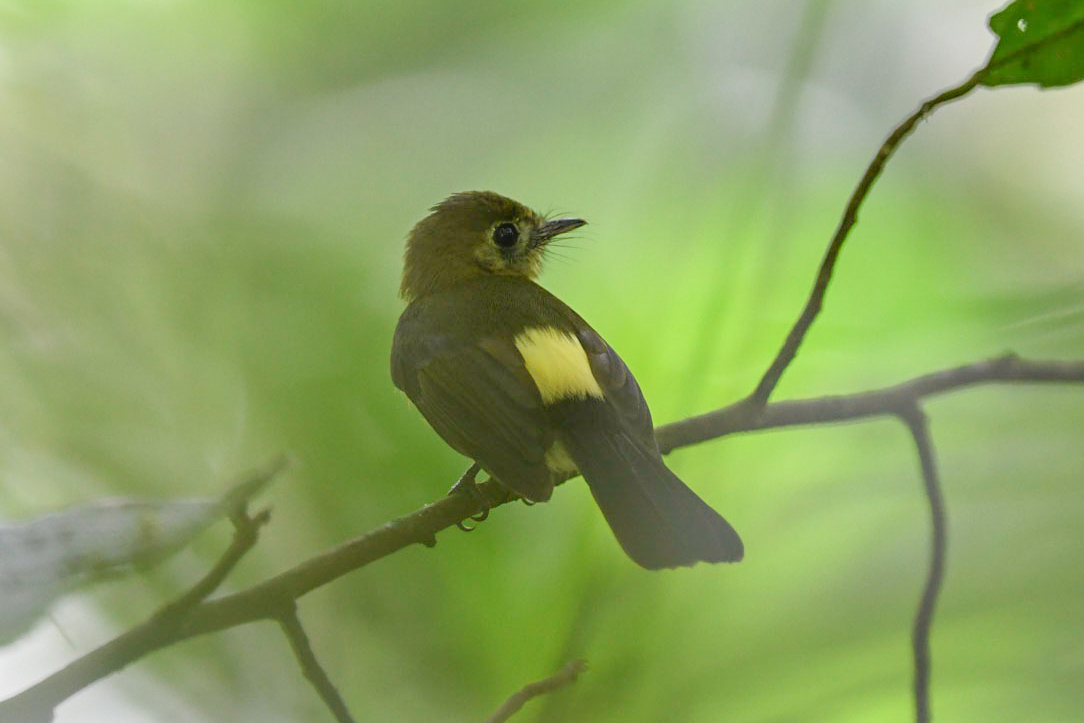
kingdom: Animalia
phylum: Chordata
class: Aves
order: Passeriformes
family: Tyrannidae
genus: Myiobius
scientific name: Myiobius barbatus
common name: Whiskered myiobius
